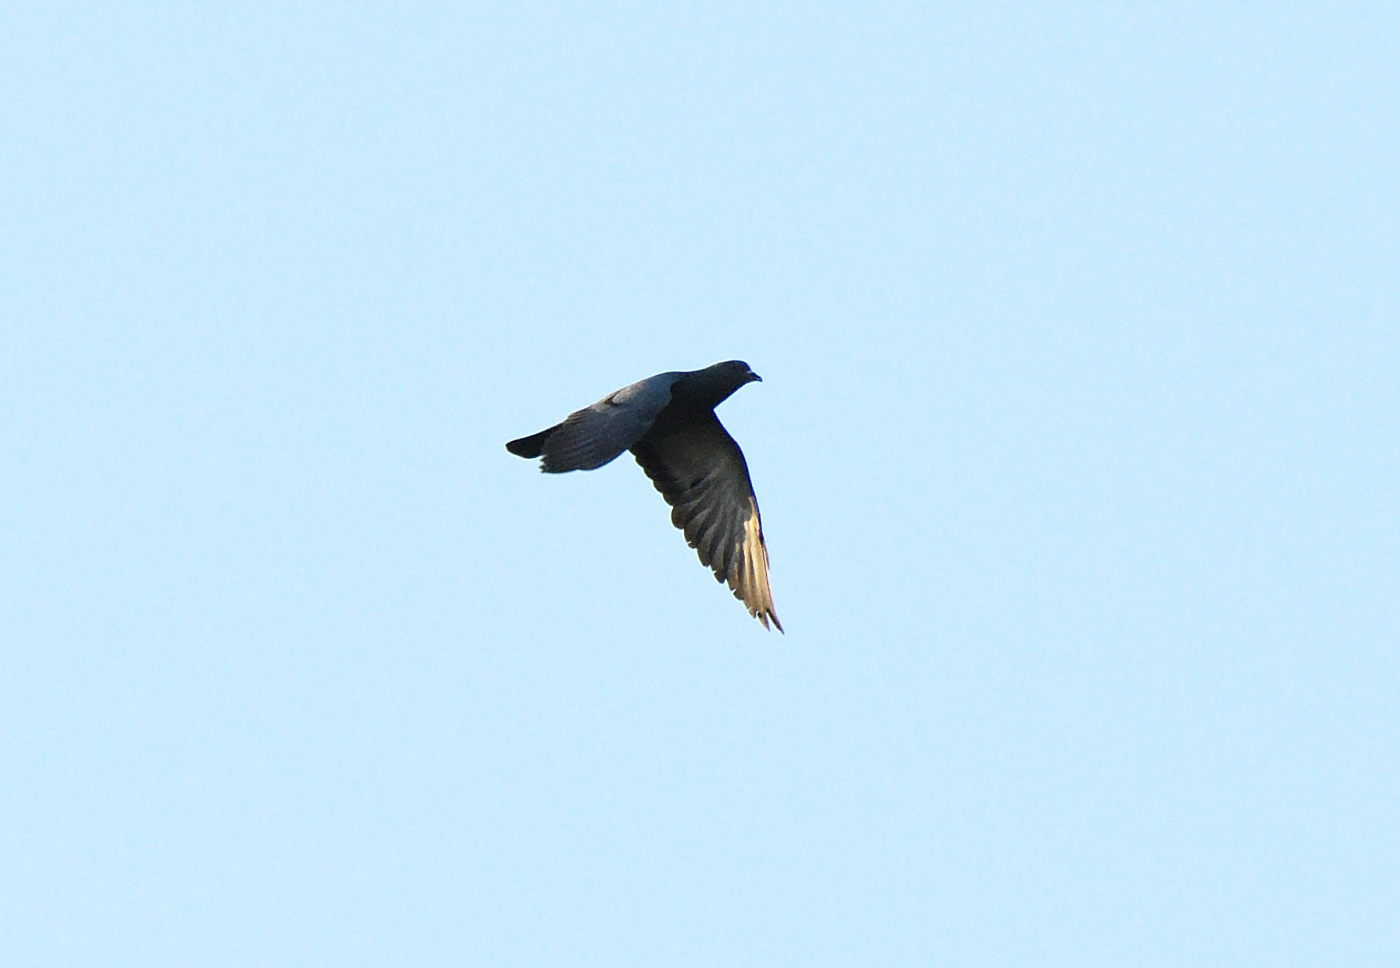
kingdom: Animalia
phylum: Chordata
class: Aves
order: Columbiformes
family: Columbidae
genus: Columba
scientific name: Columba livia
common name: Rock pigeon
